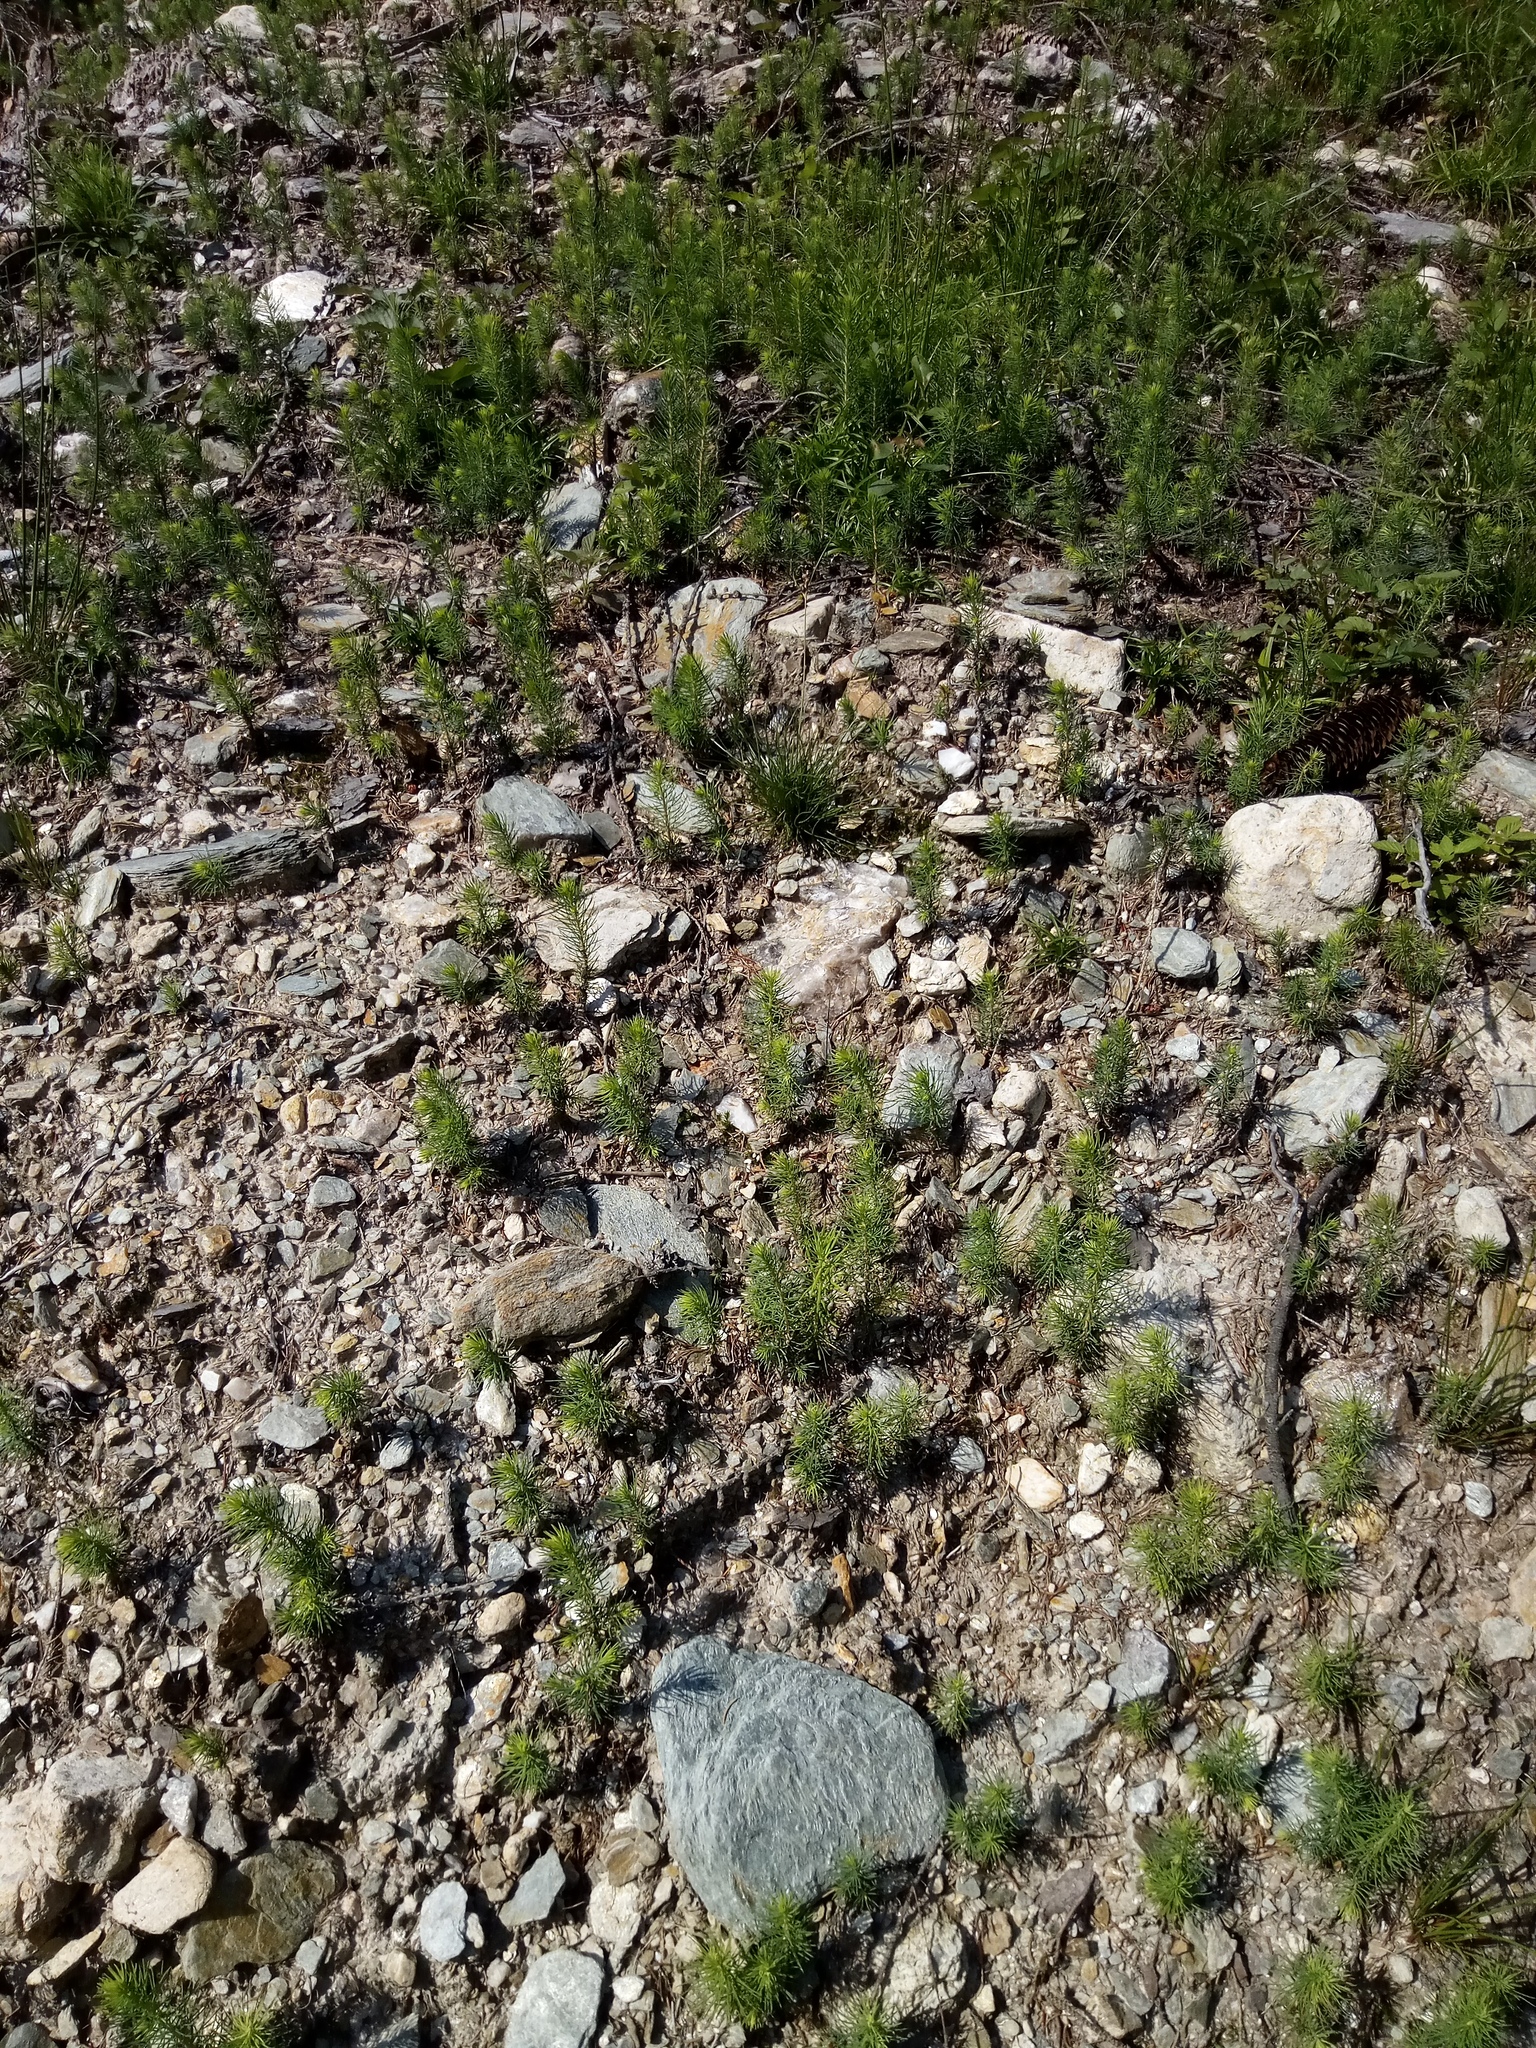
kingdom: Plantae
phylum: Tracheophyta
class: Pinopsida
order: Pinales
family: Pinaceae
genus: Picea
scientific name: Picea abies
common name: Norway spruce
